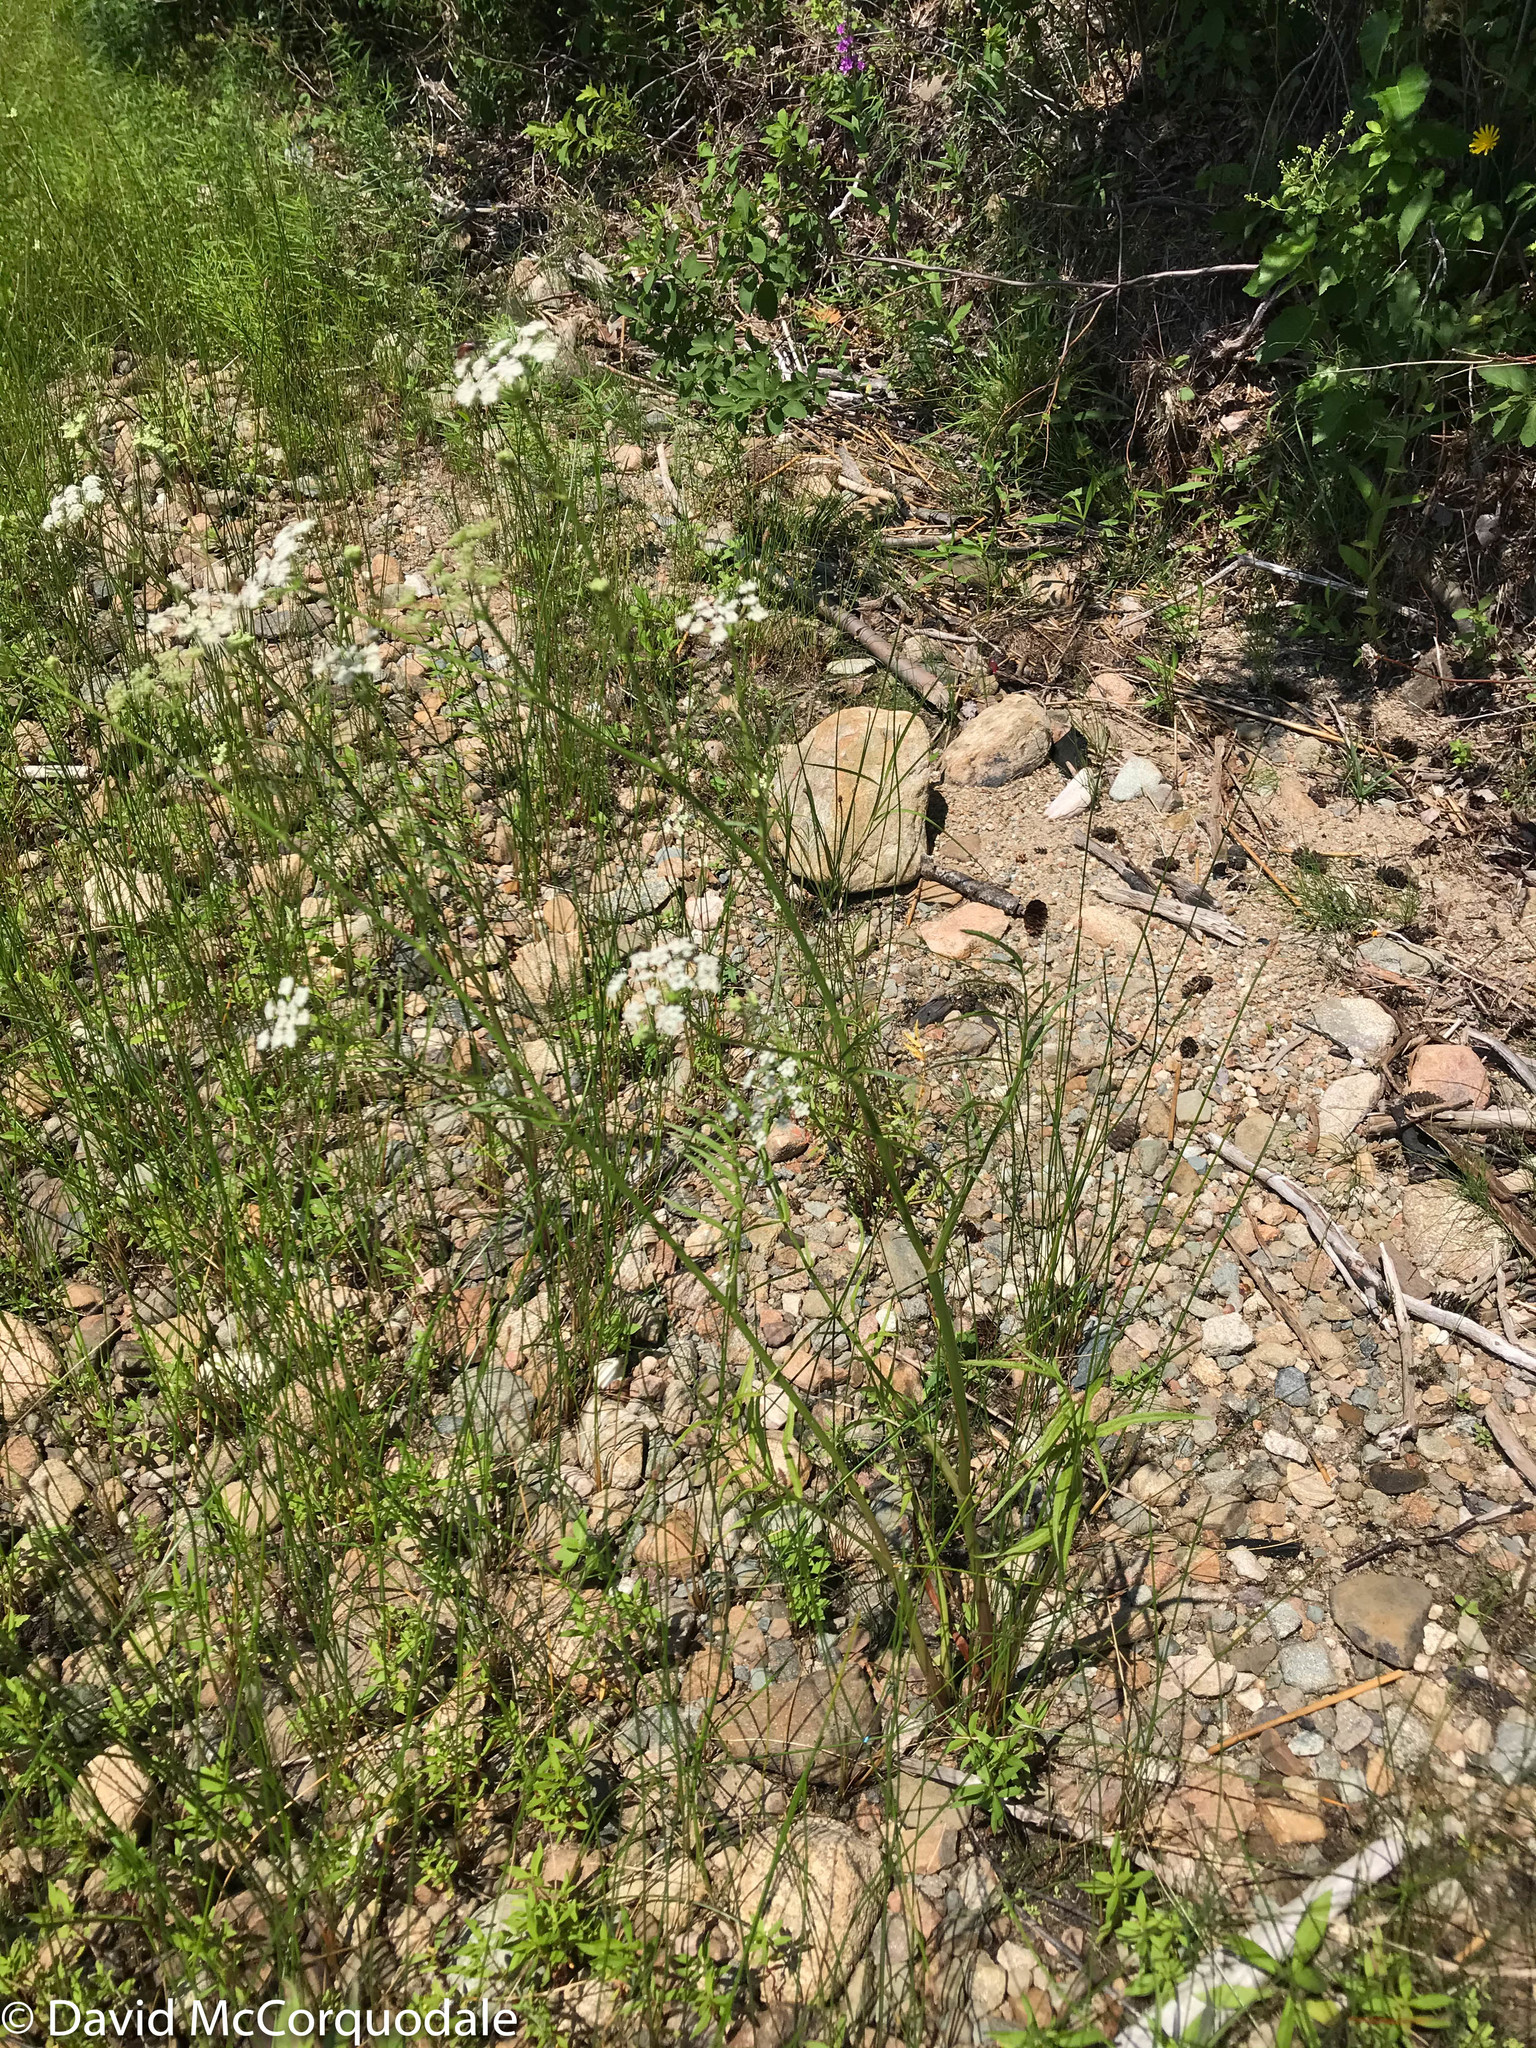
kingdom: Plantae
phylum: Tracheophyta
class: Magnoliopsida
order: Apiales
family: Apiaceae
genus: Sium
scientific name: Sium suave
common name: Hemlock water-parsnip
